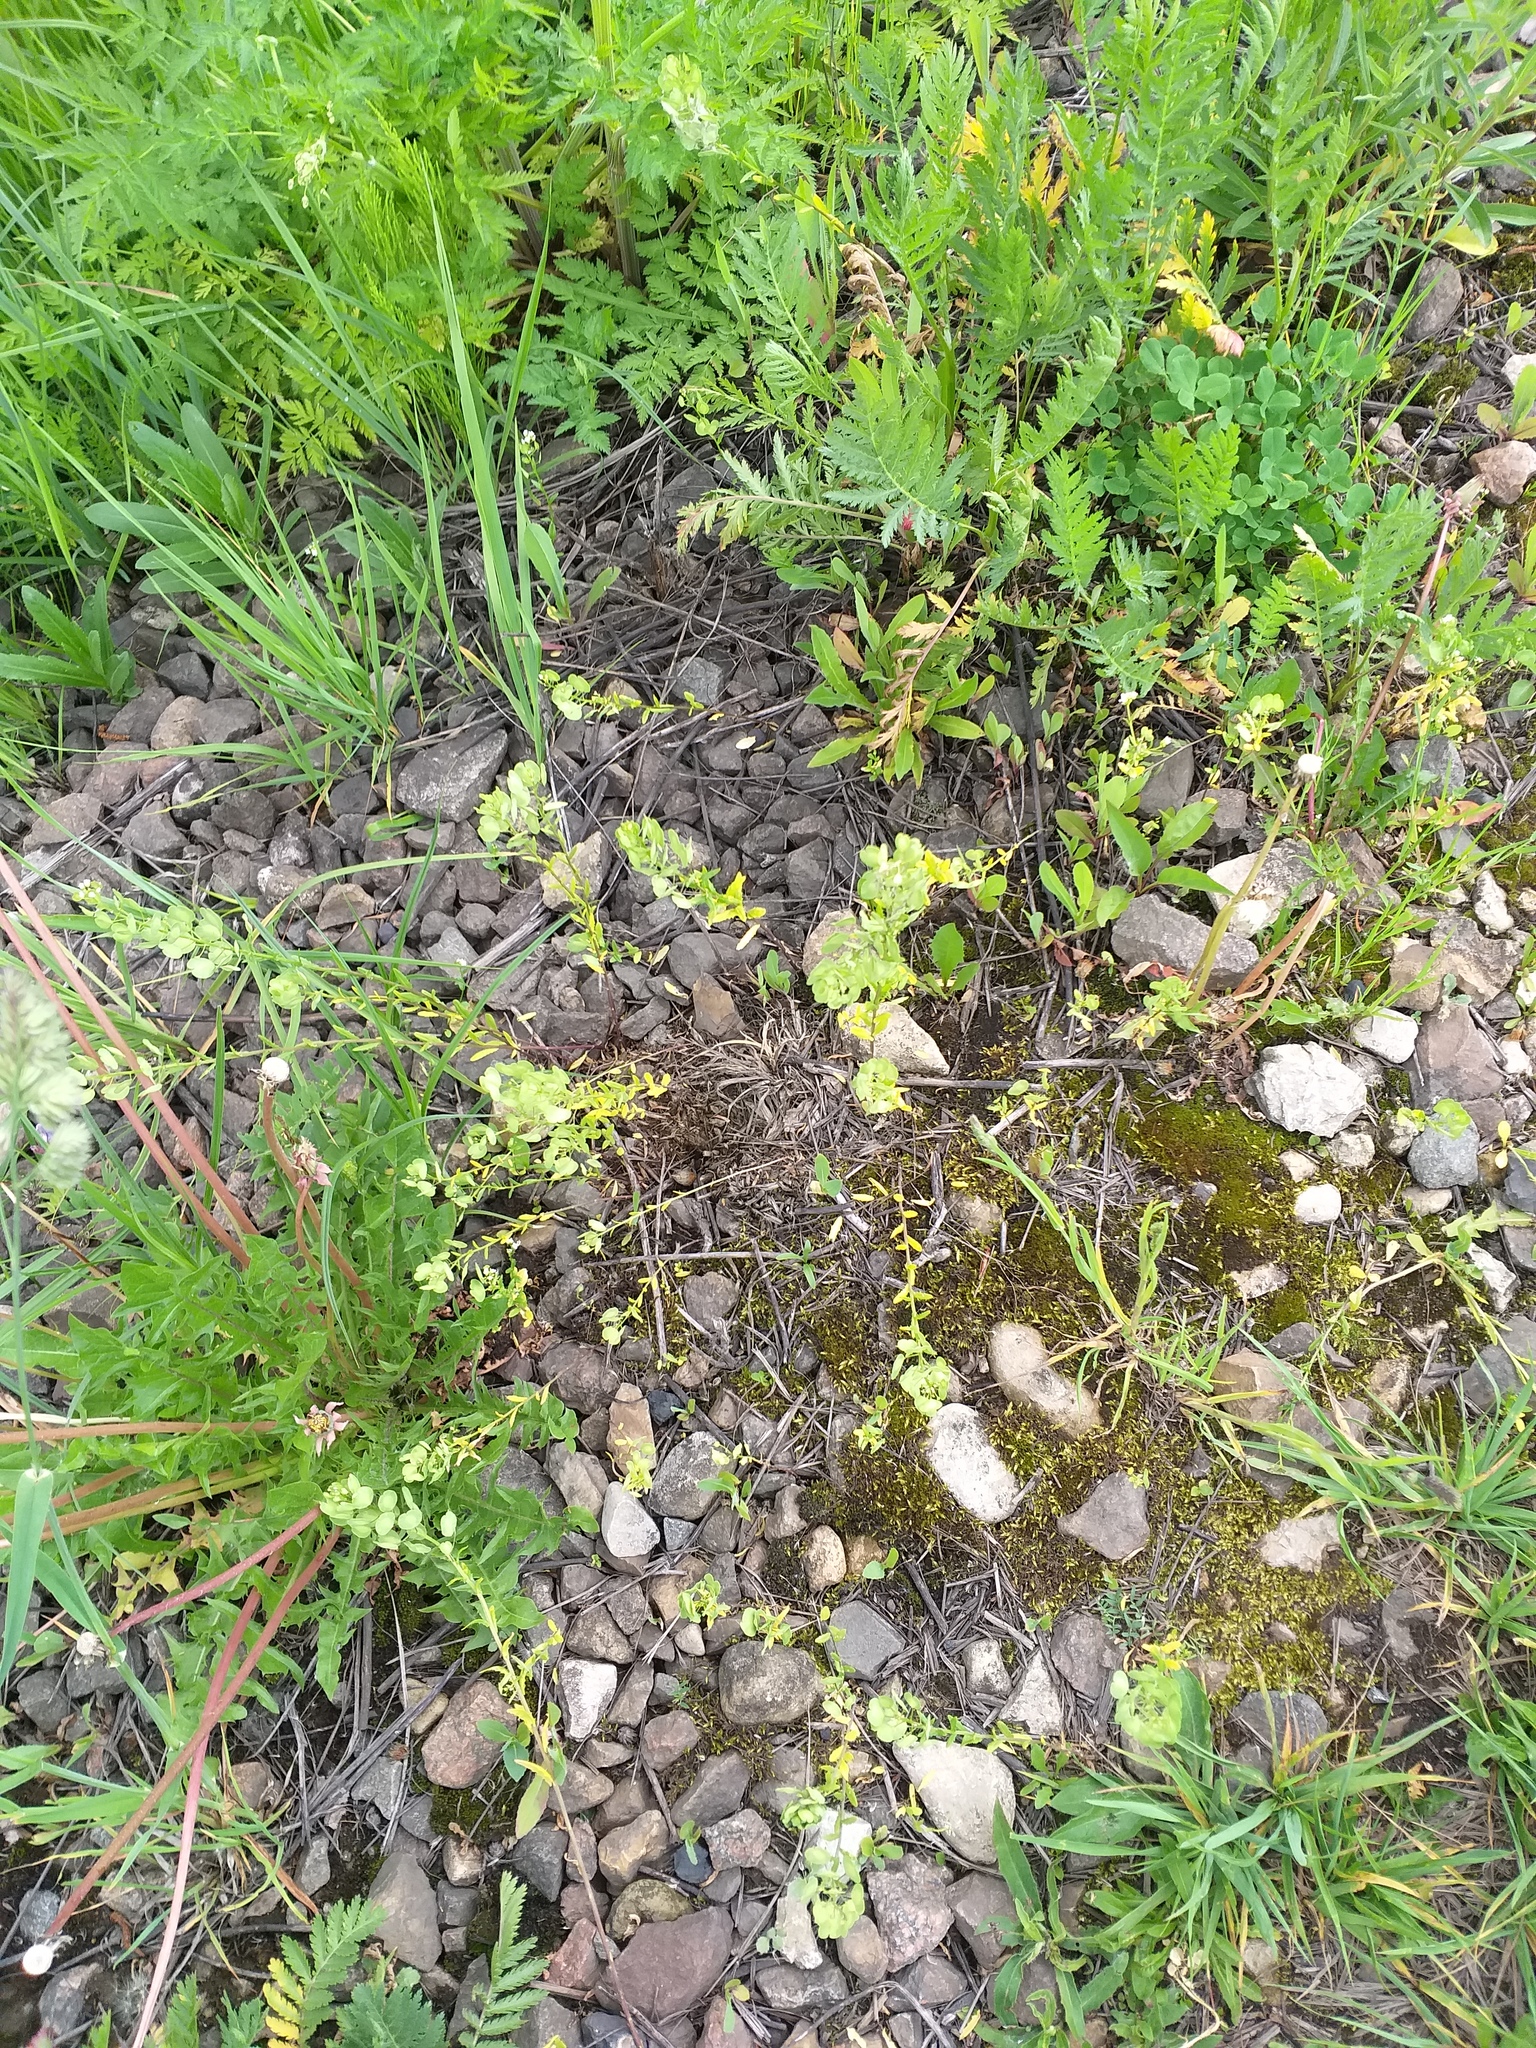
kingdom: Plantae
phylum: Tracheophyta
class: Magnoliopsida
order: Brassicales
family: Brassicaceae
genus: Thlaspi
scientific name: Thlaspi arvense
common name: Field pennycress
